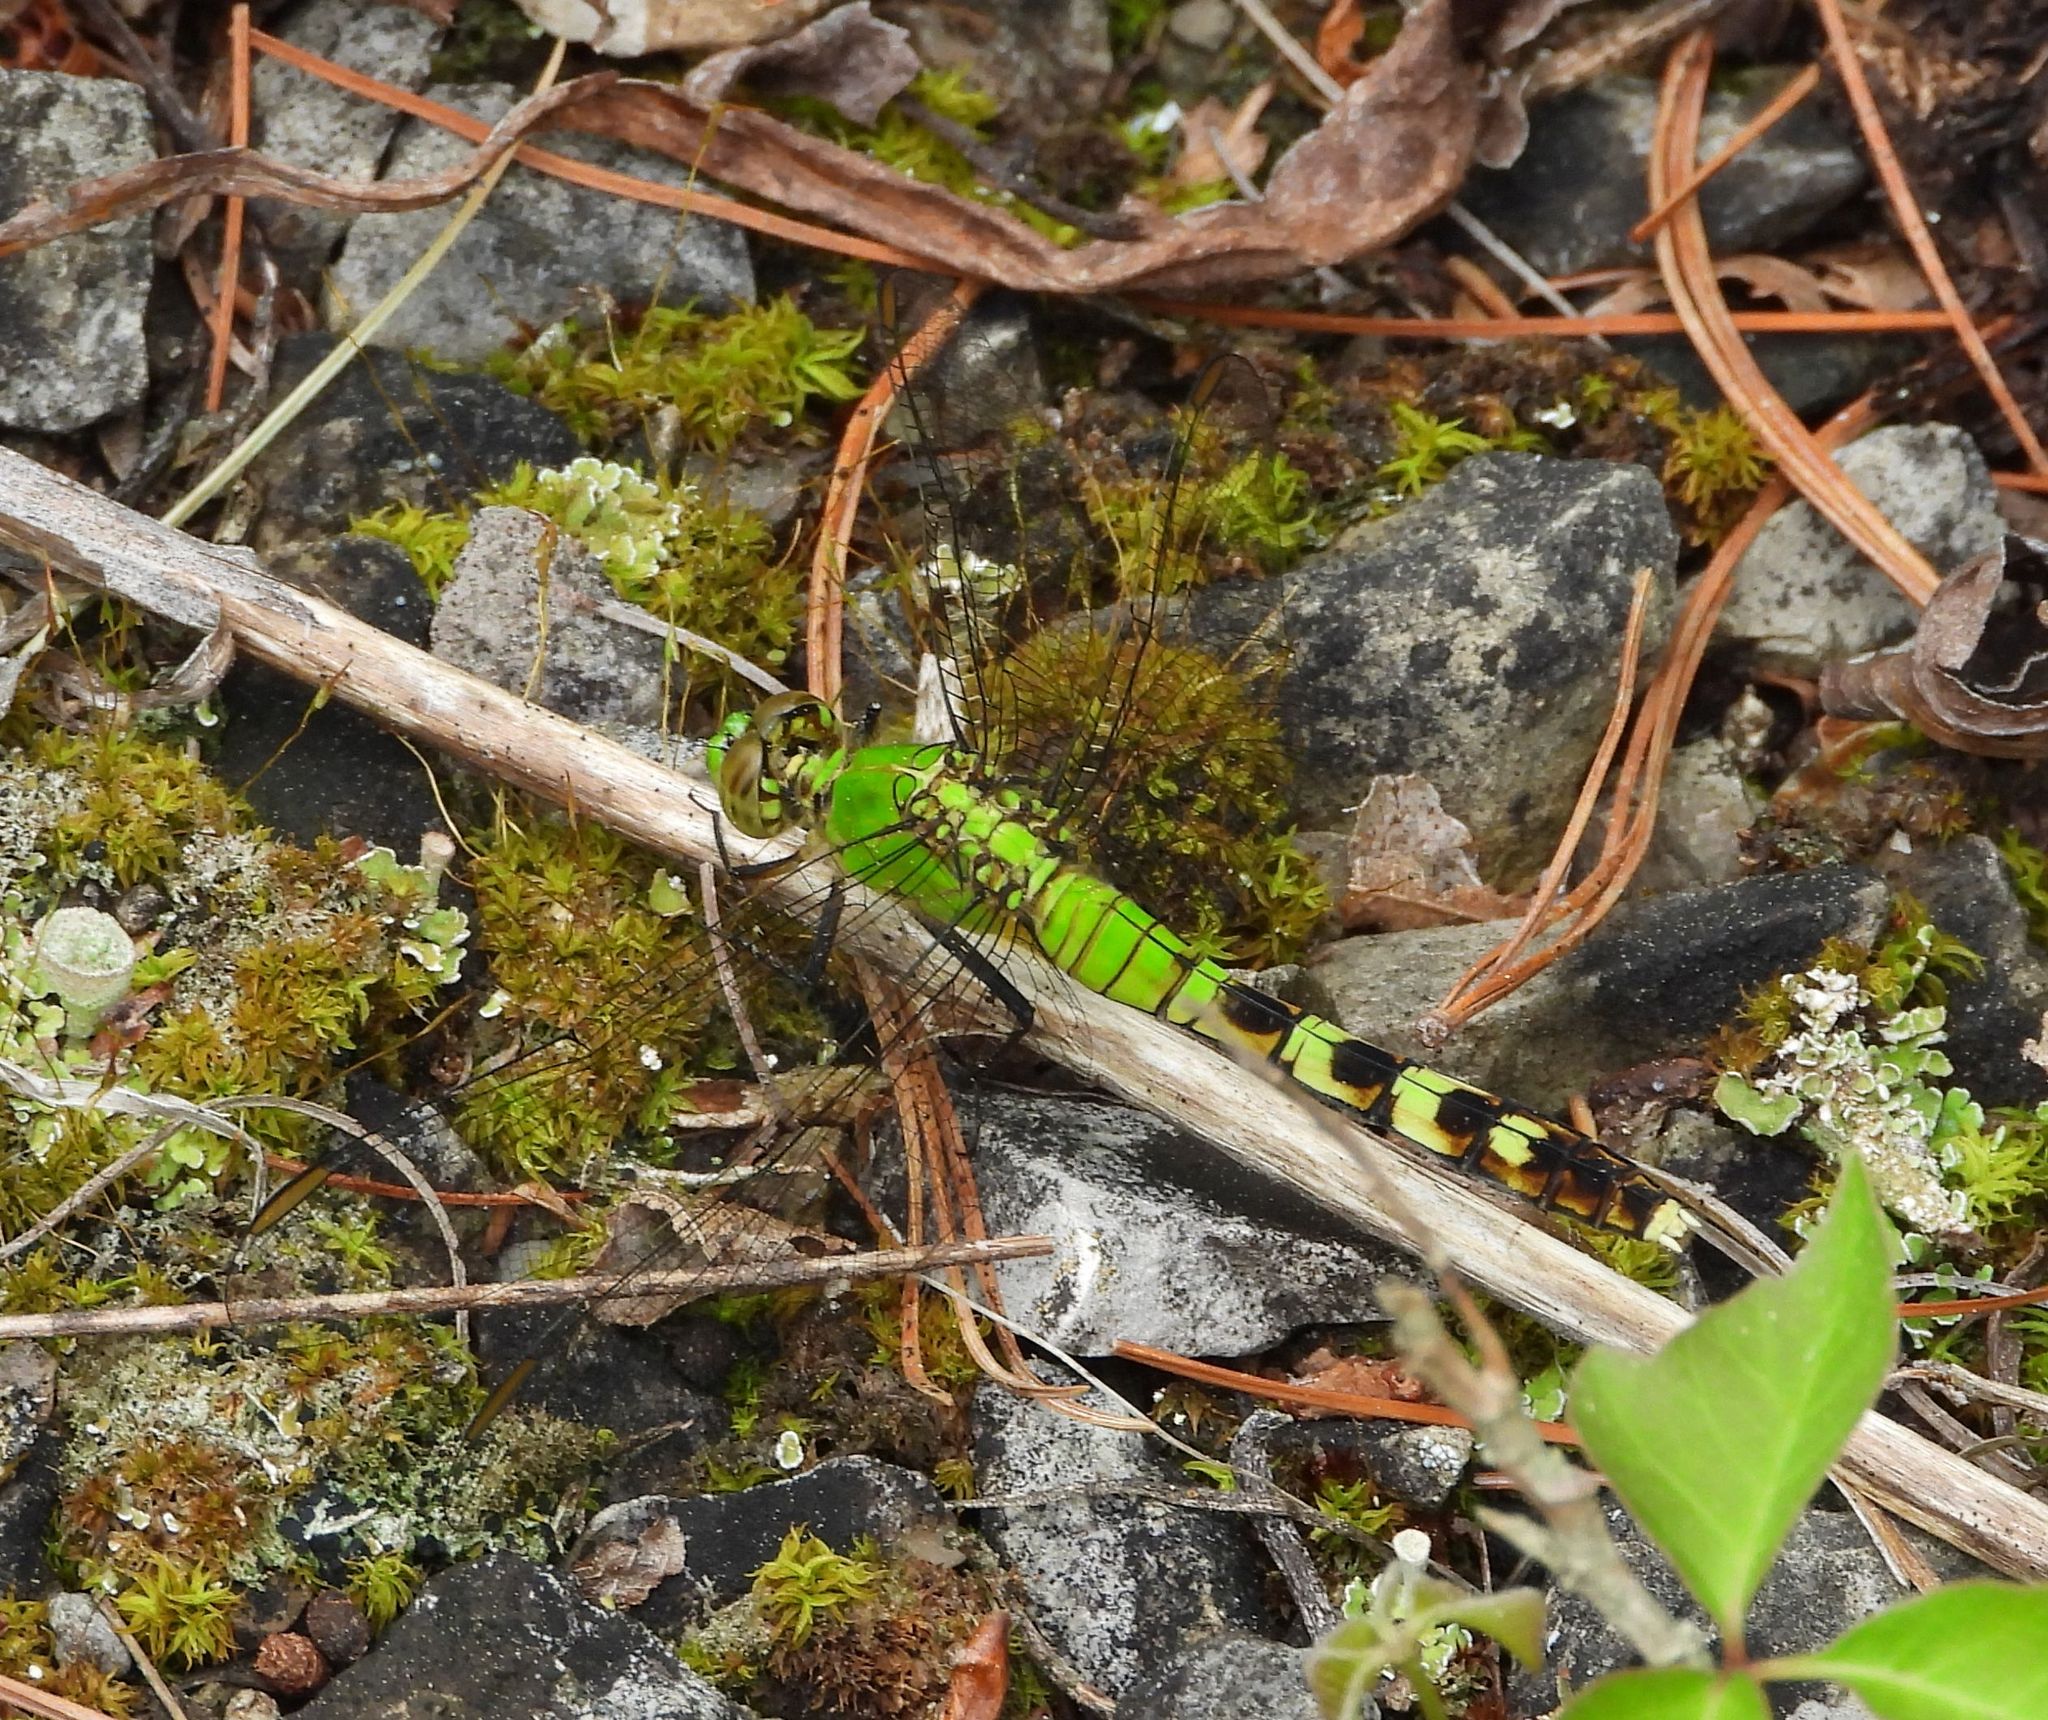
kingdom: Animalia
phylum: Arthropoda
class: Insecta
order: Odonata
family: Libellulidae
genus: Erythemis
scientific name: Erythemis simplicicollis
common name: Eastern pondhawk
